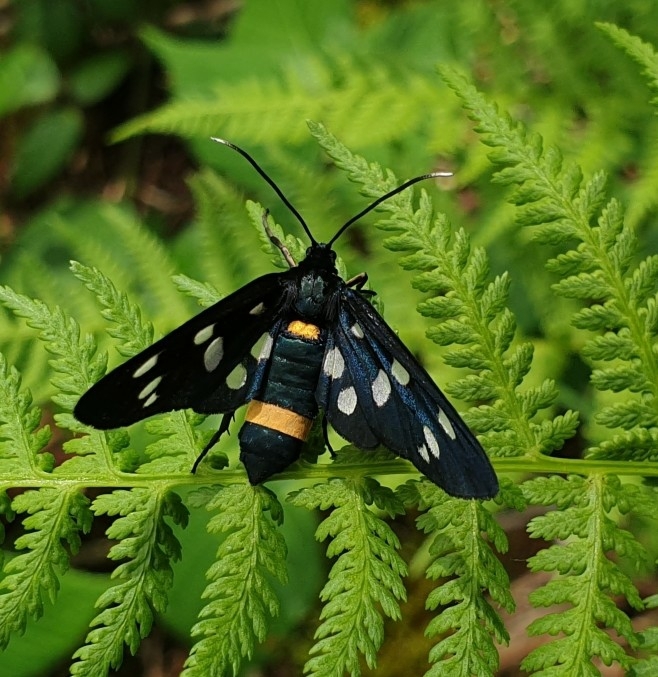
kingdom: Animalia
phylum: Arthropoda
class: Insecta
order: Lepidoptera
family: Erebidae
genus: Amata
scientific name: Amata phegea
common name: Nine-spotted
